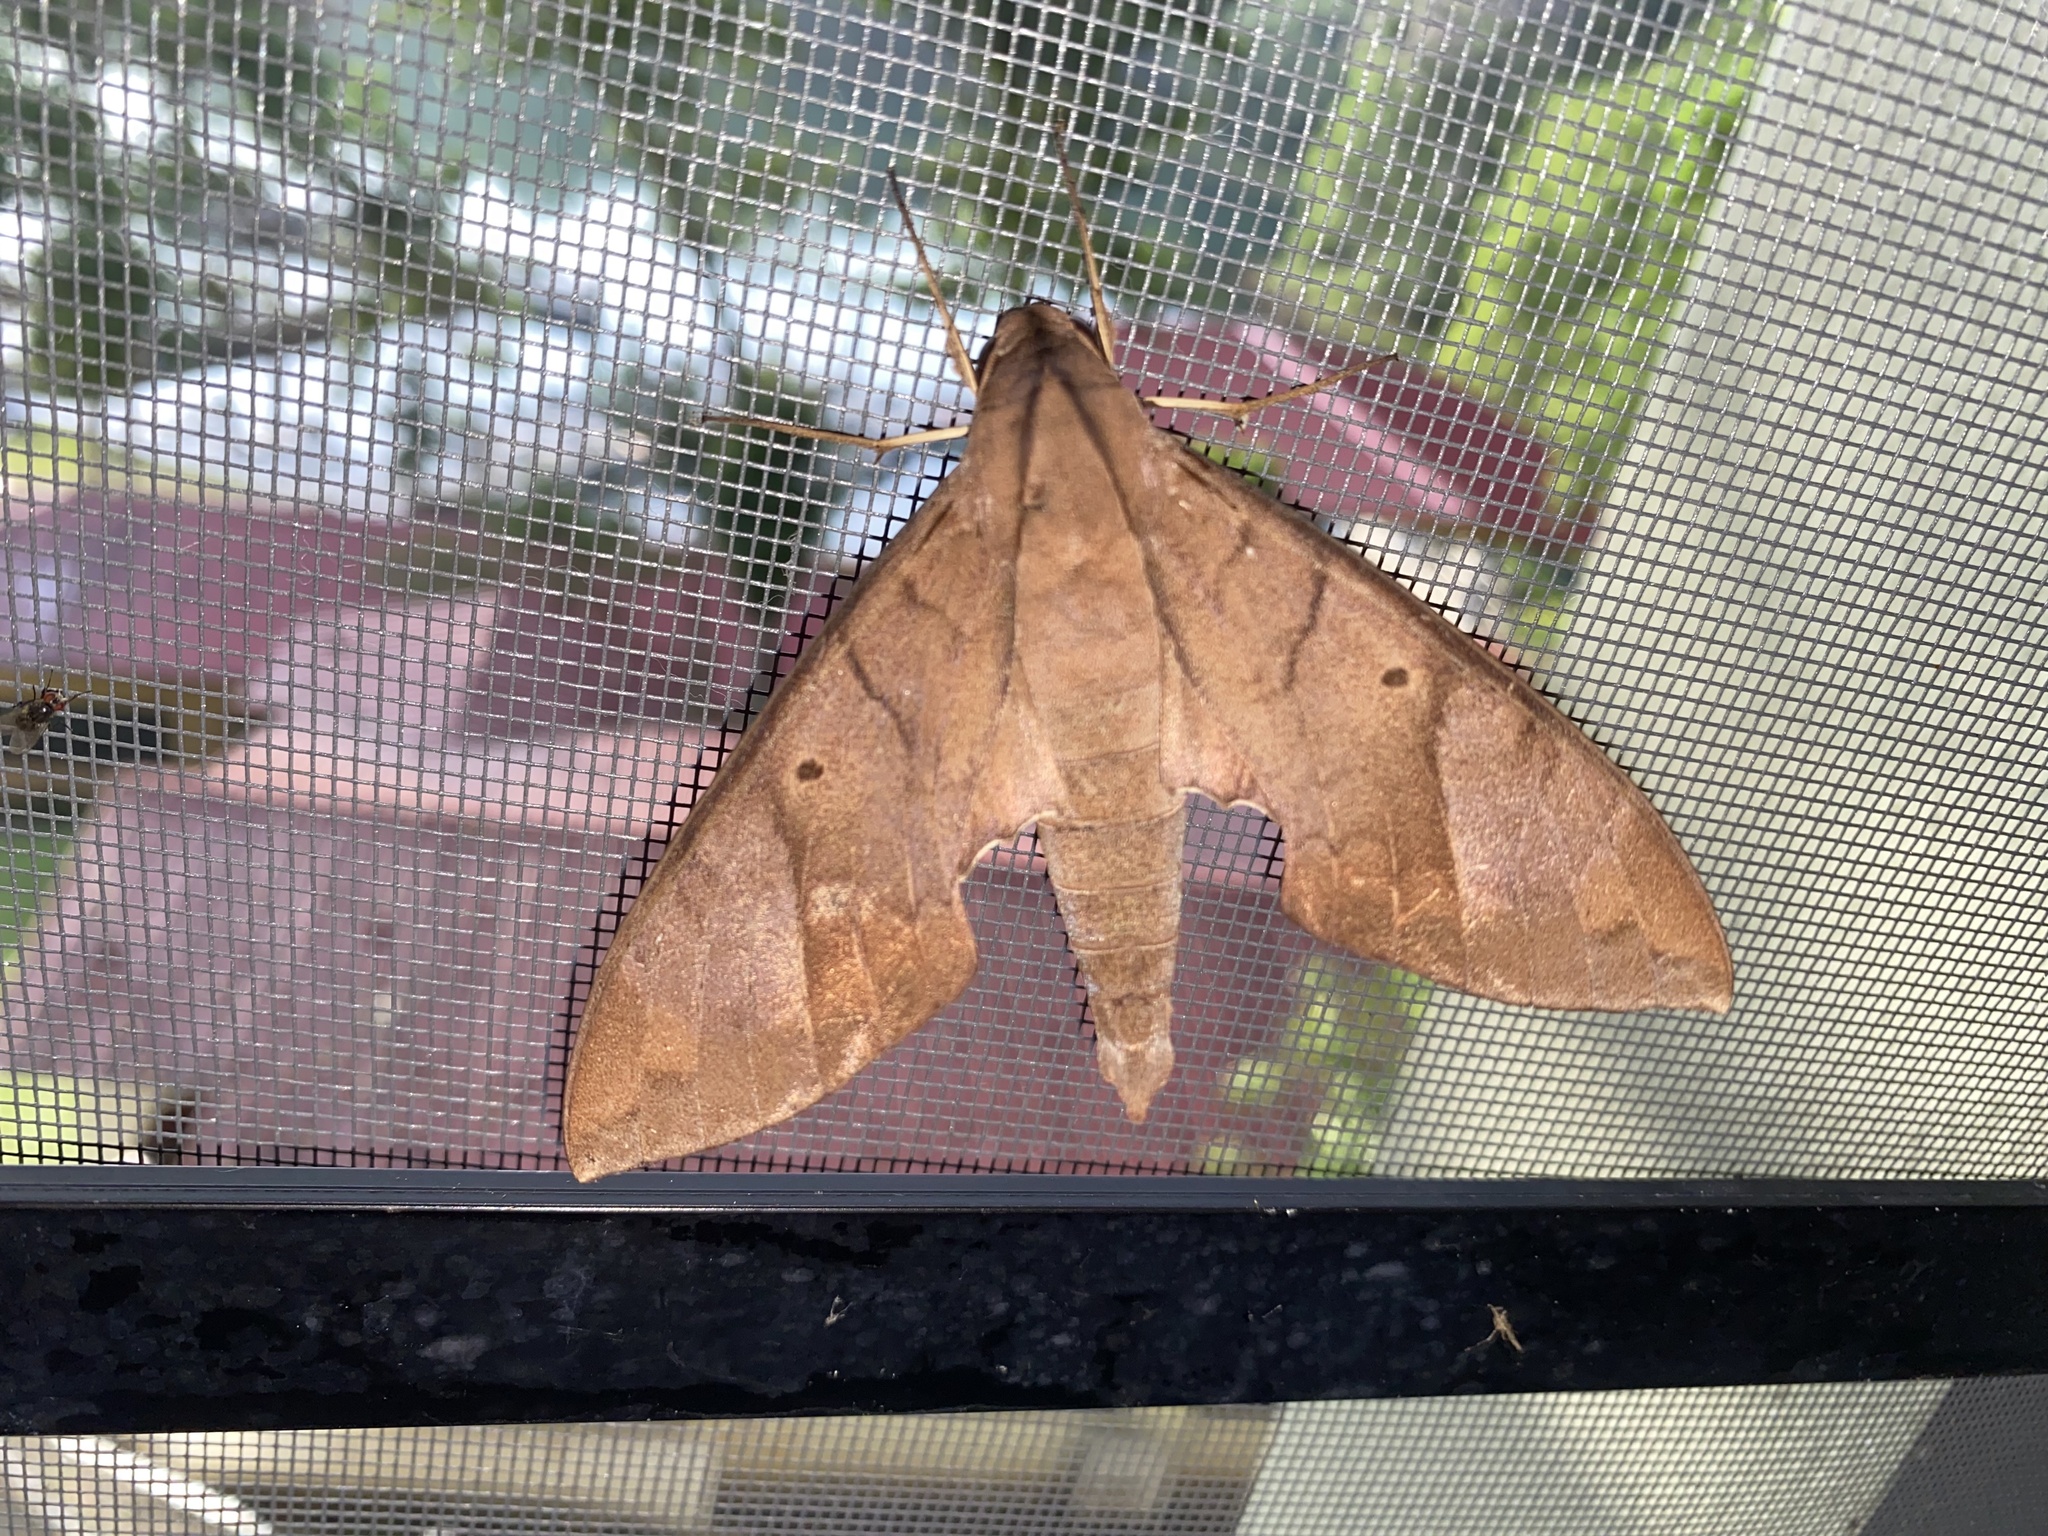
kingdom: Animalia
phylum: Arthropoda
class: Insecta
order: Lepidoptera
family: Sphingidae
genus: Pachylia
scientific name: Pachylia darceta
